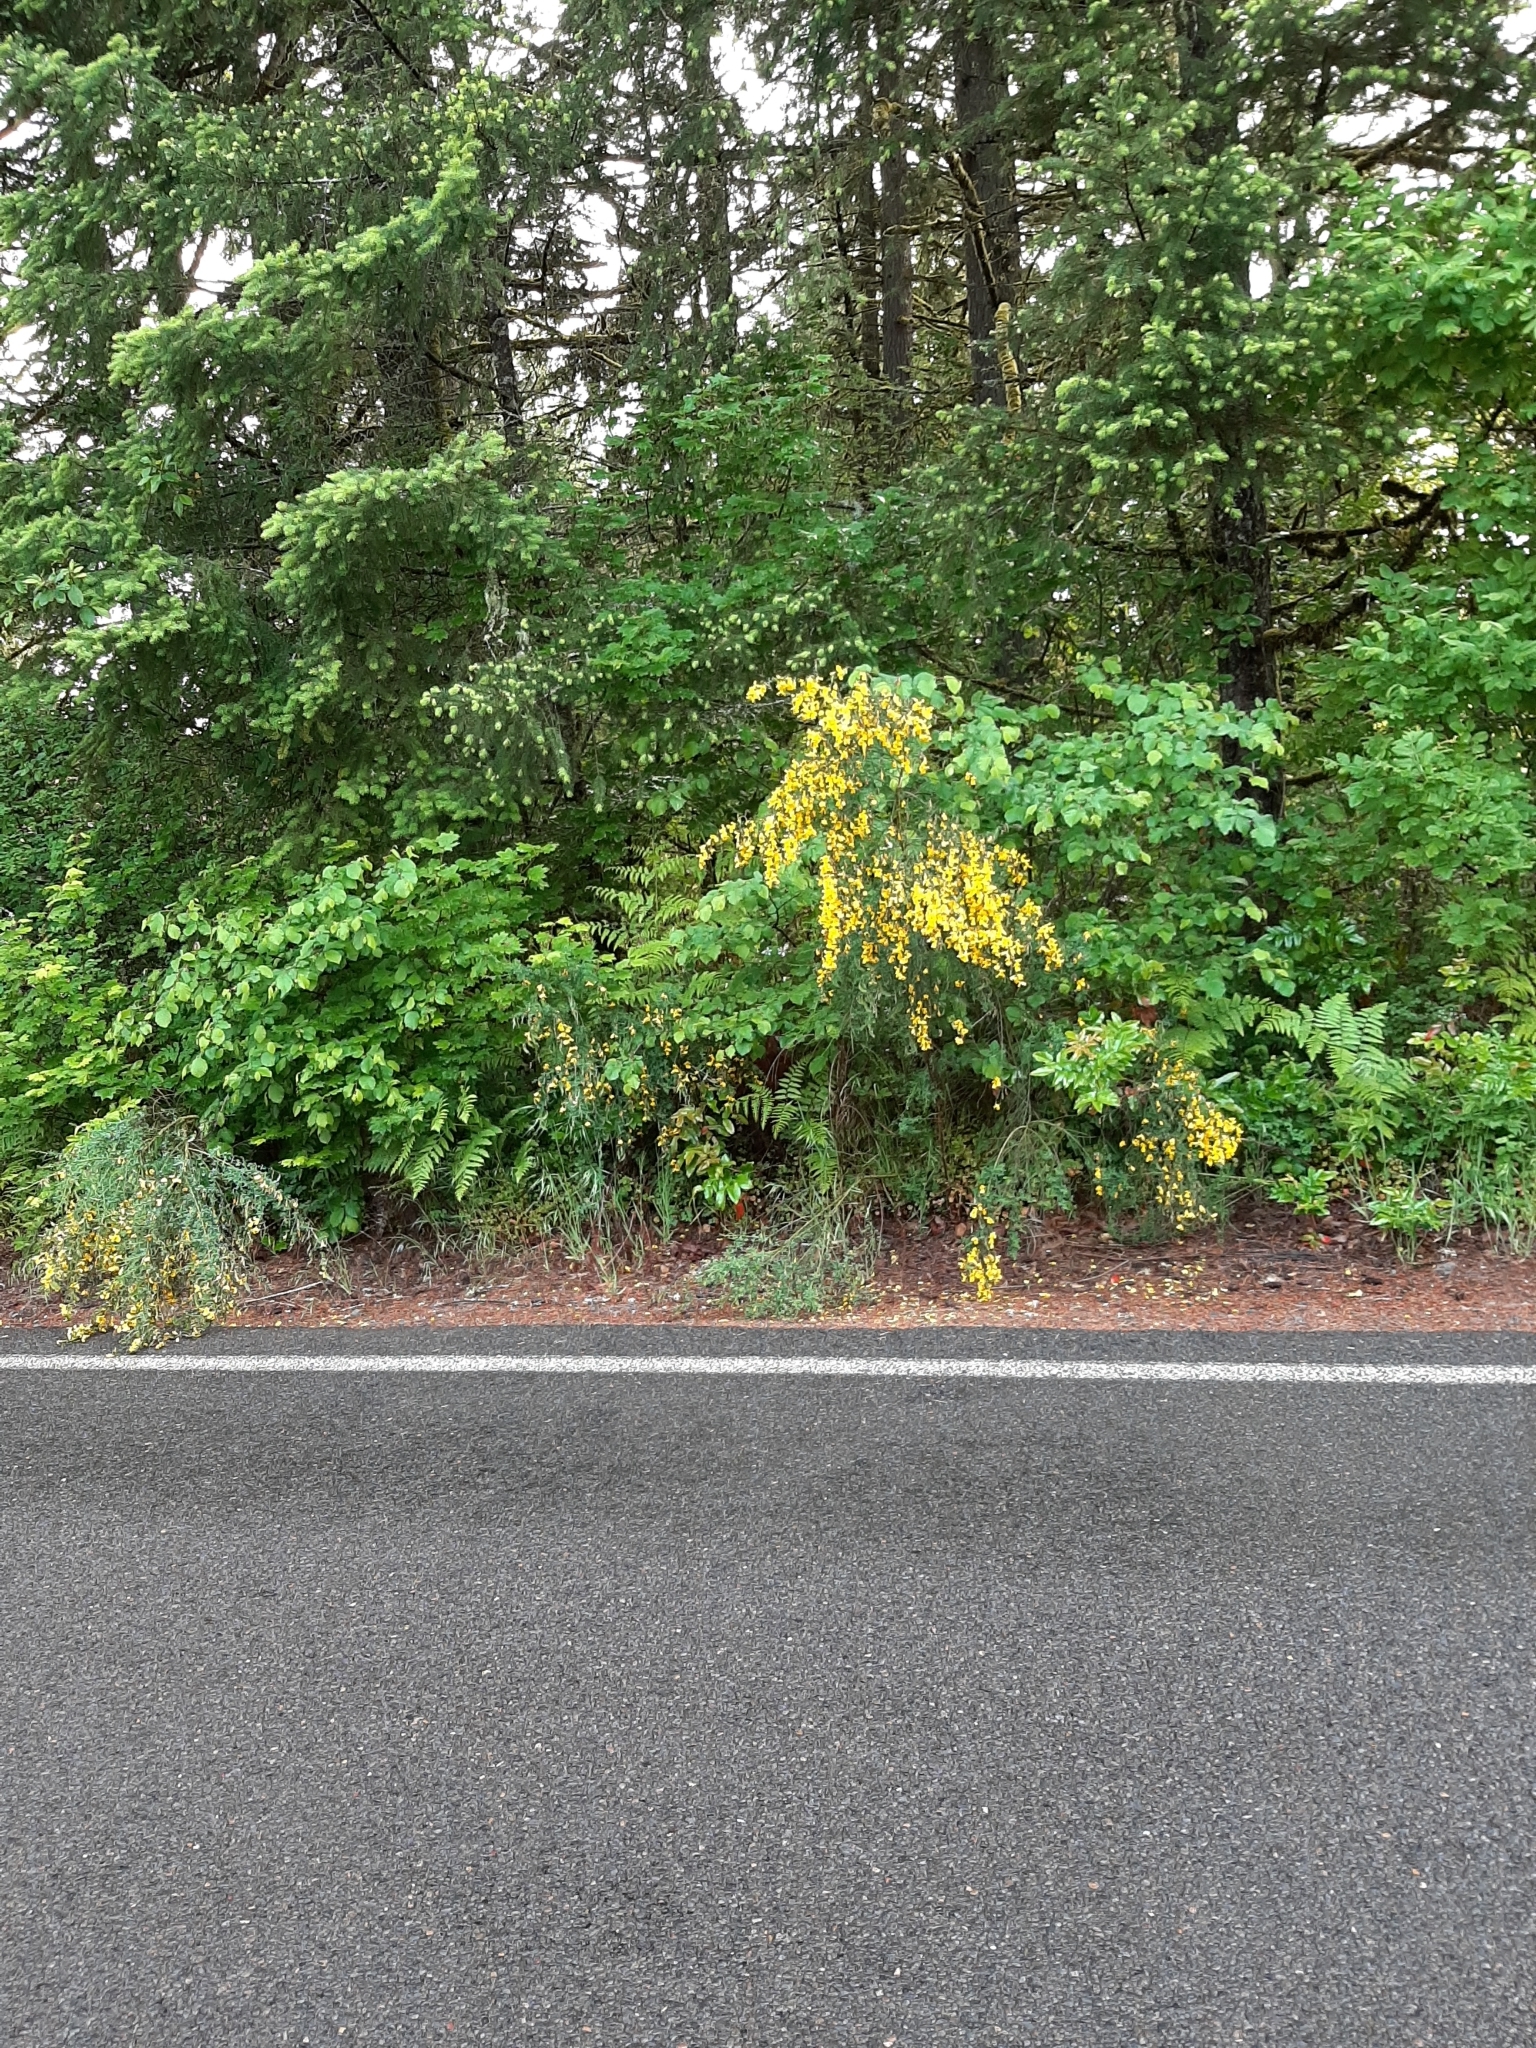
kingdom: Plantae
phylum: Tracheophyta
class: Magnoliopsida
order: Fabales
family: Fabaceae
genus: Cytisus
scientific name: Cytisus scoparius
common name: Scotch broom
